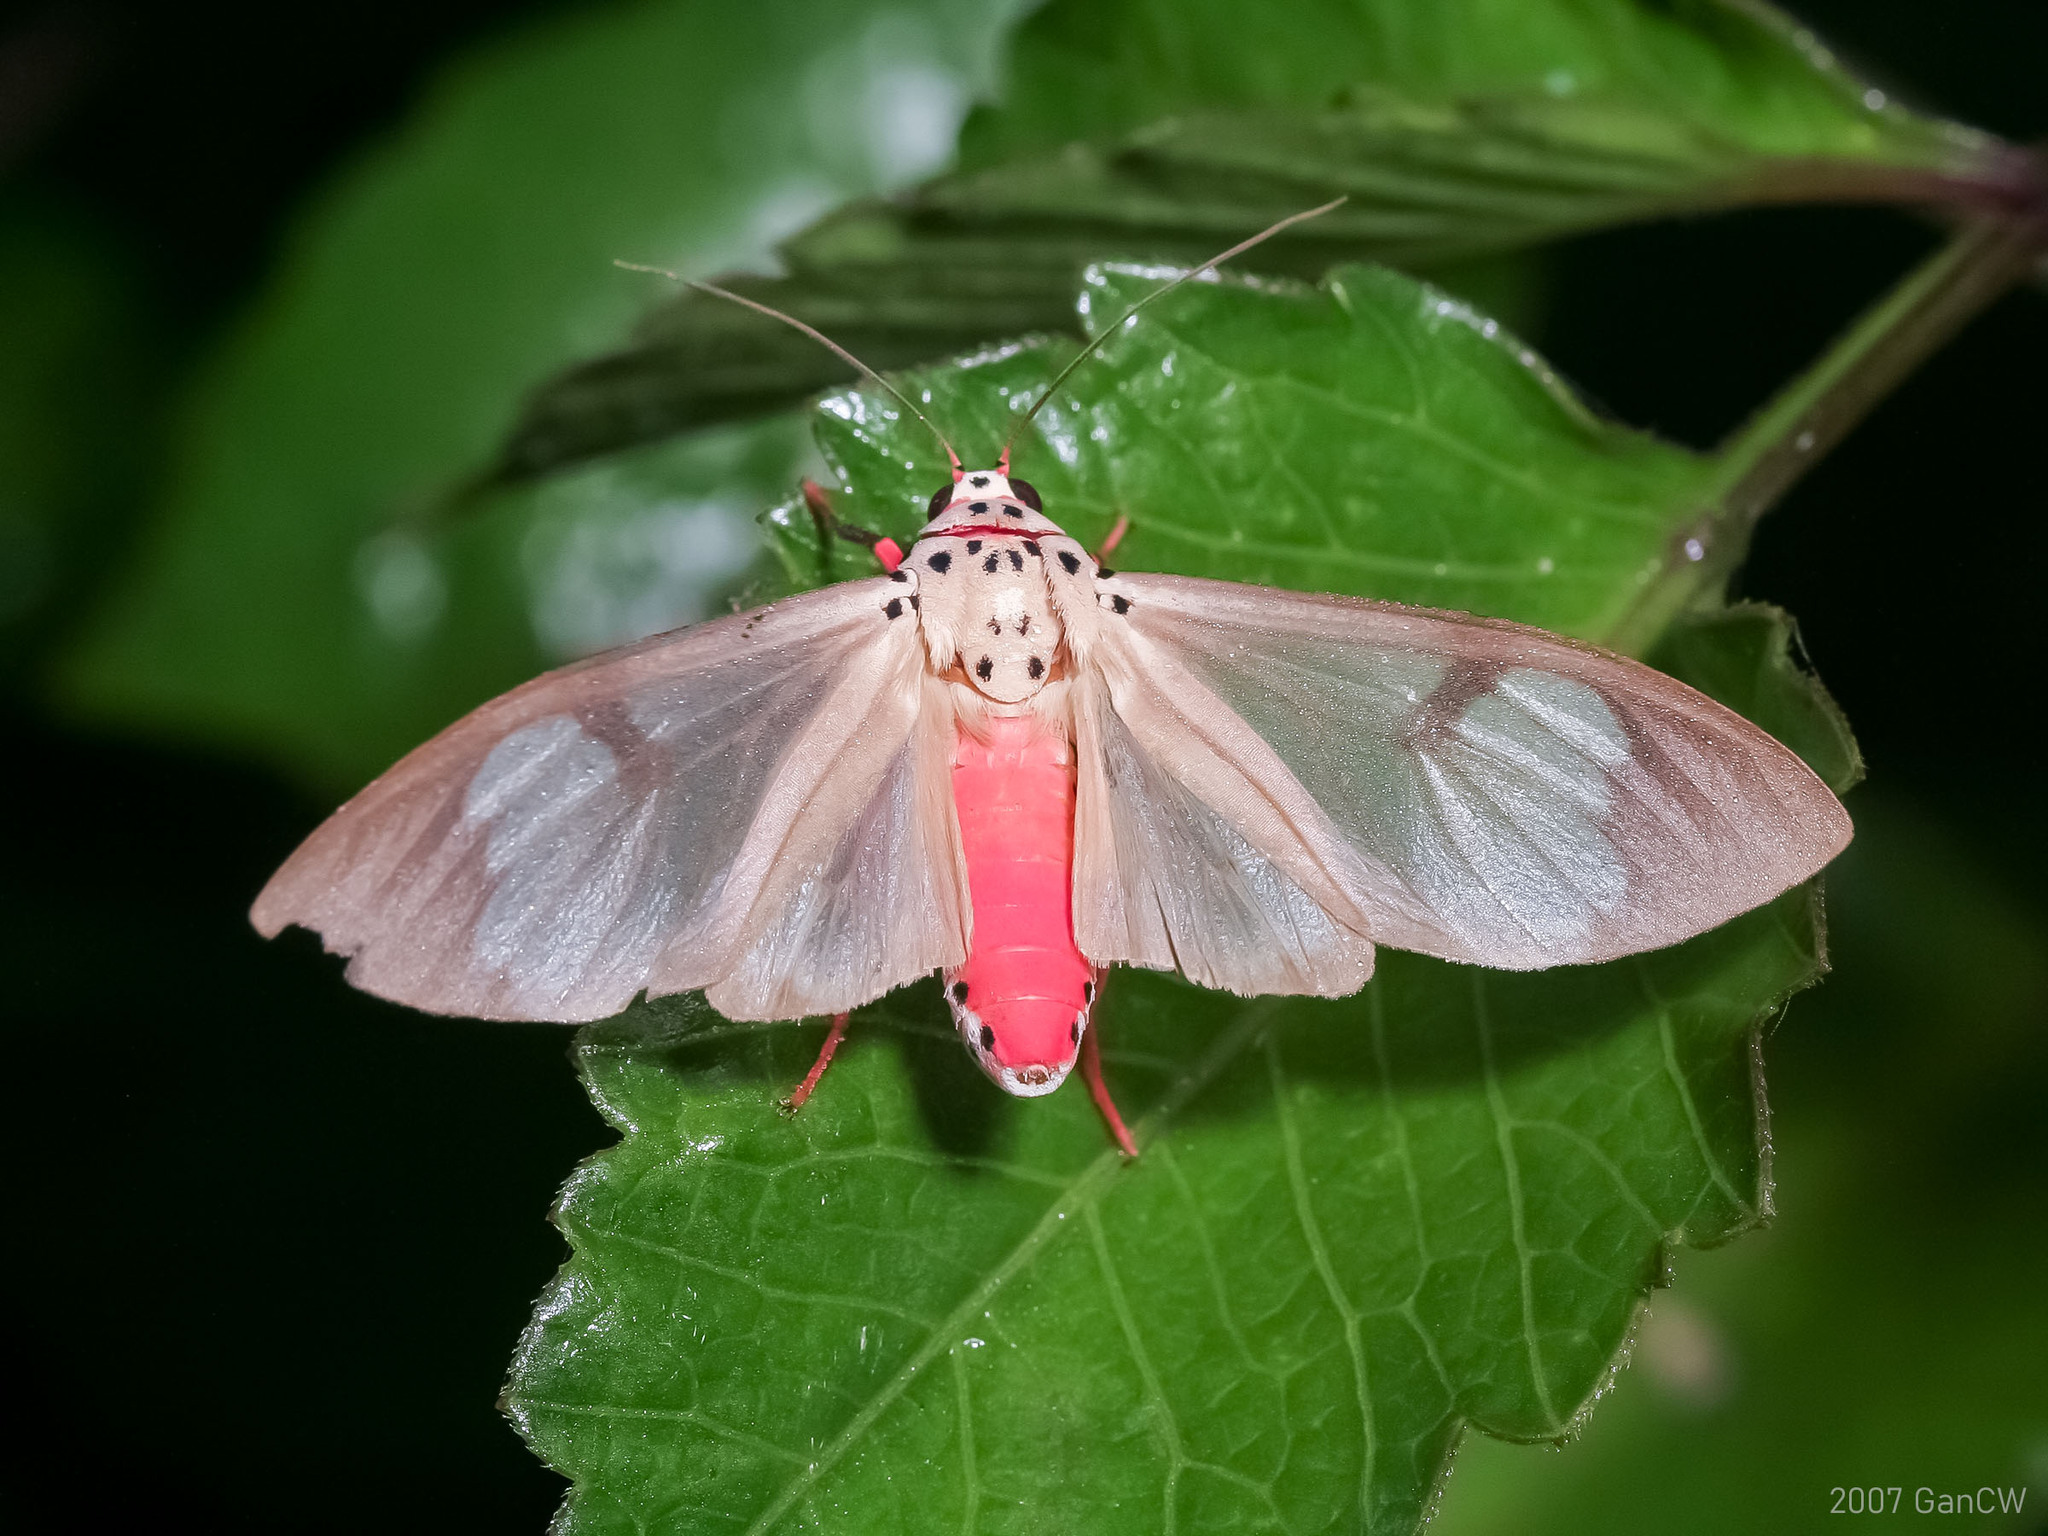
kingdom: Animalia
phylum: Arthropoda
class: Insecta
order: Lepidoptera
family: Erebidae
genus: Amerila
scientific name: Amerila astreus
